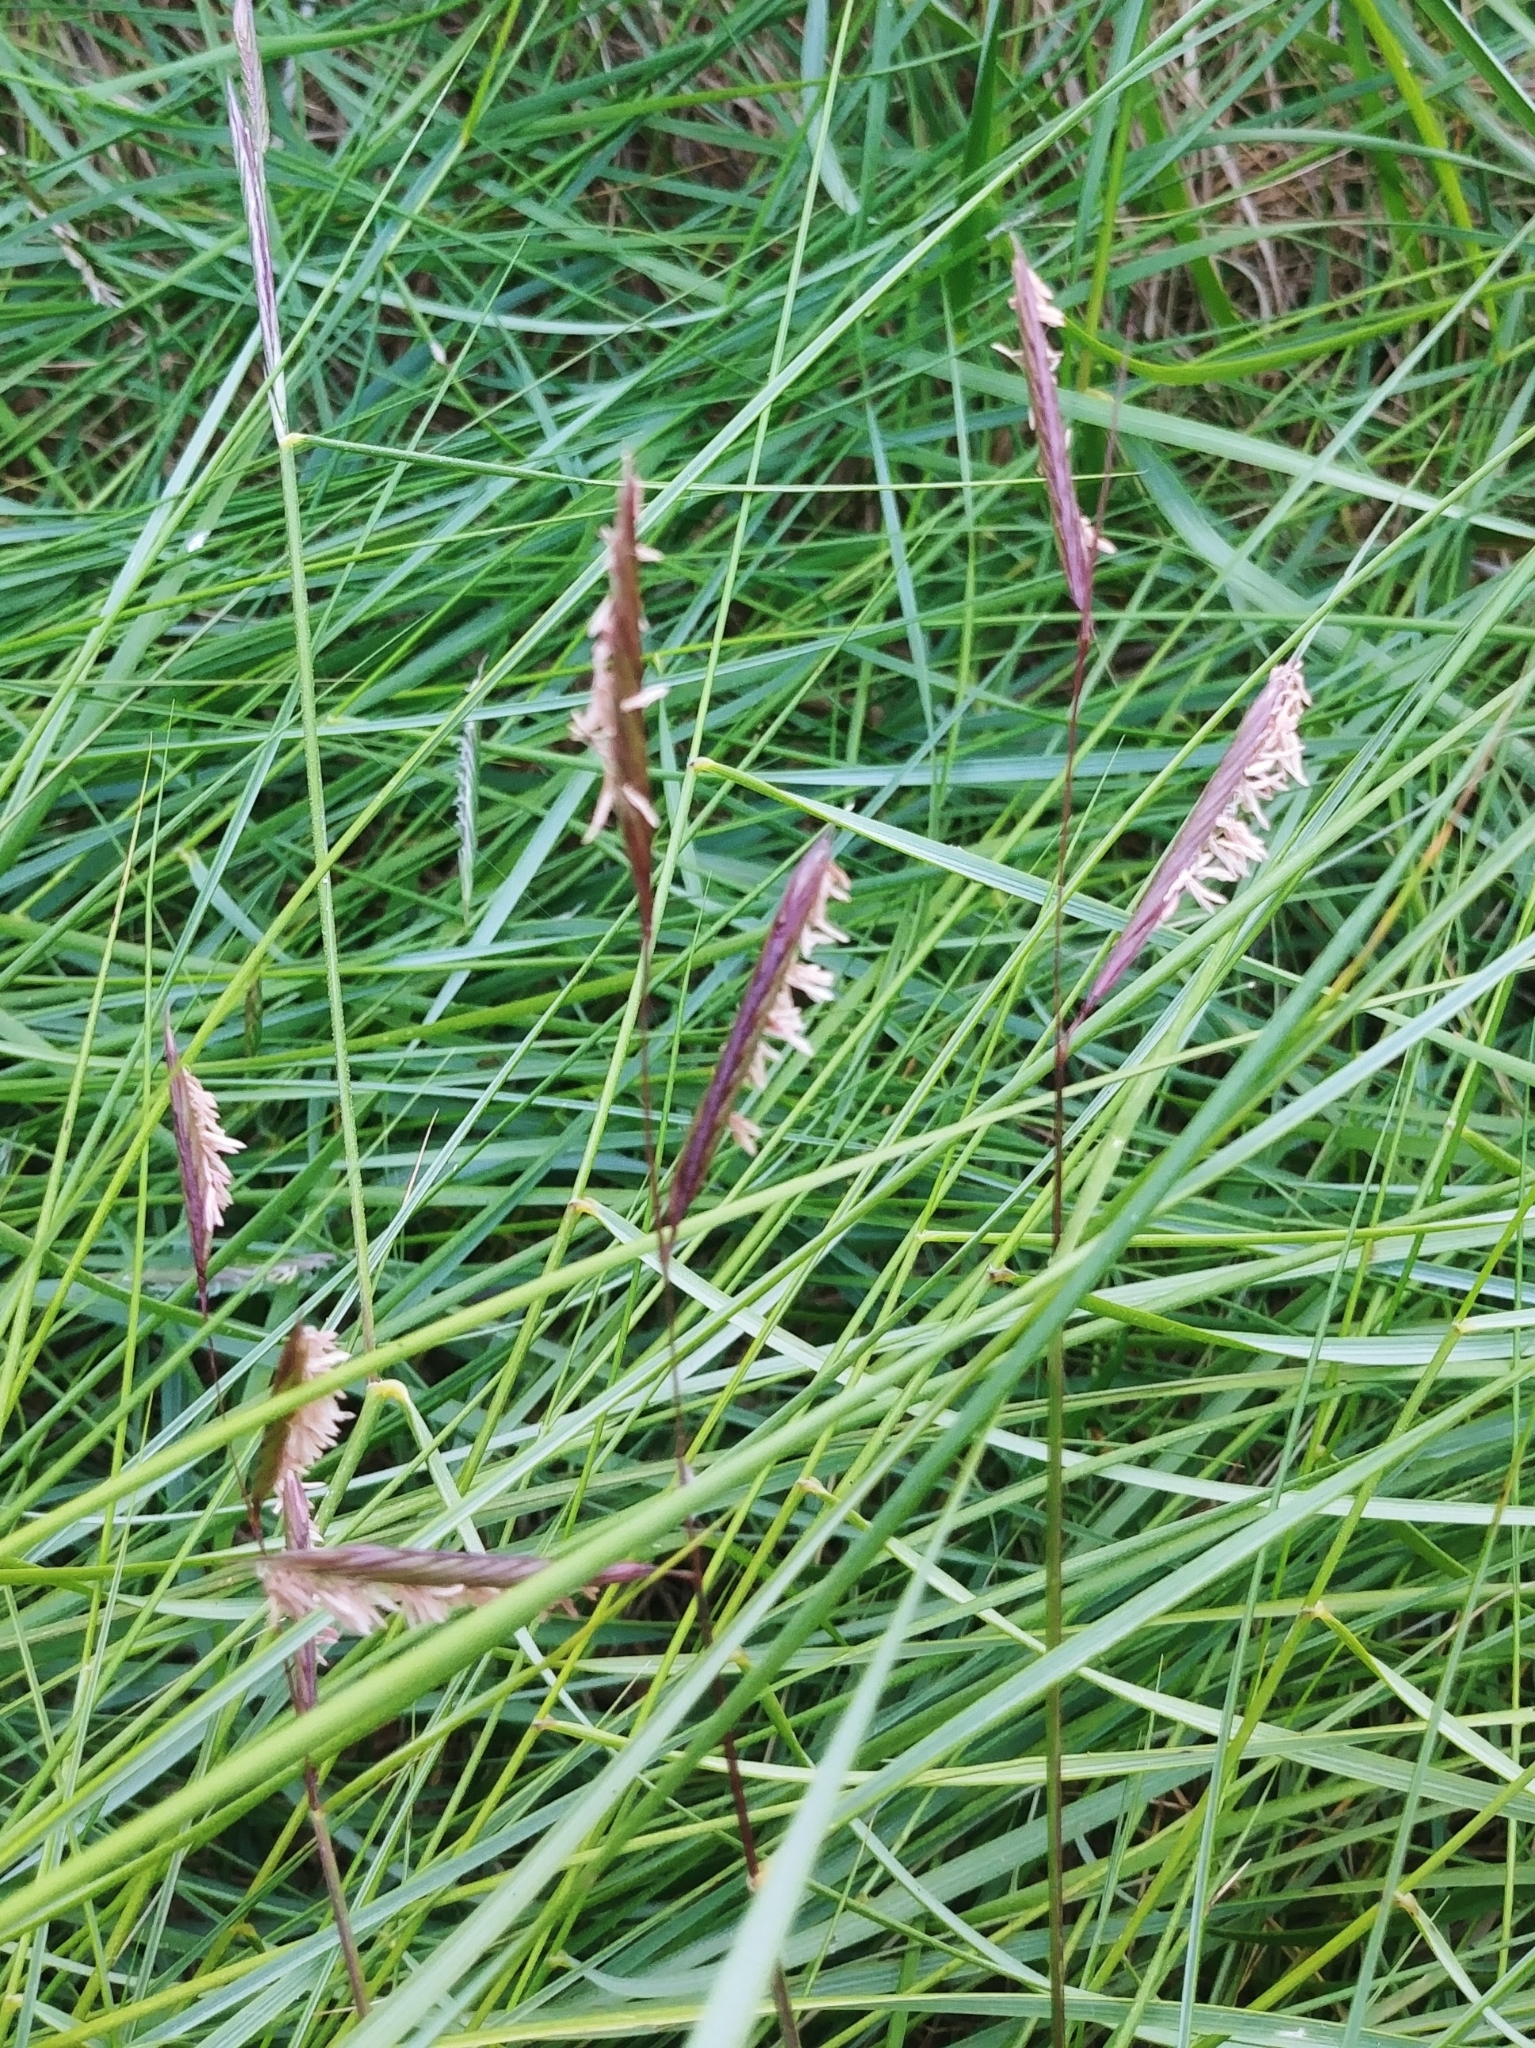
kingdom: Plantae
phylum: Tracheophyta
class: Liliopsida
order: Poales
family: Poaceae
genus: Sporobolus
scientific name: Sporobolus pumilus
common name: Highwater grass
